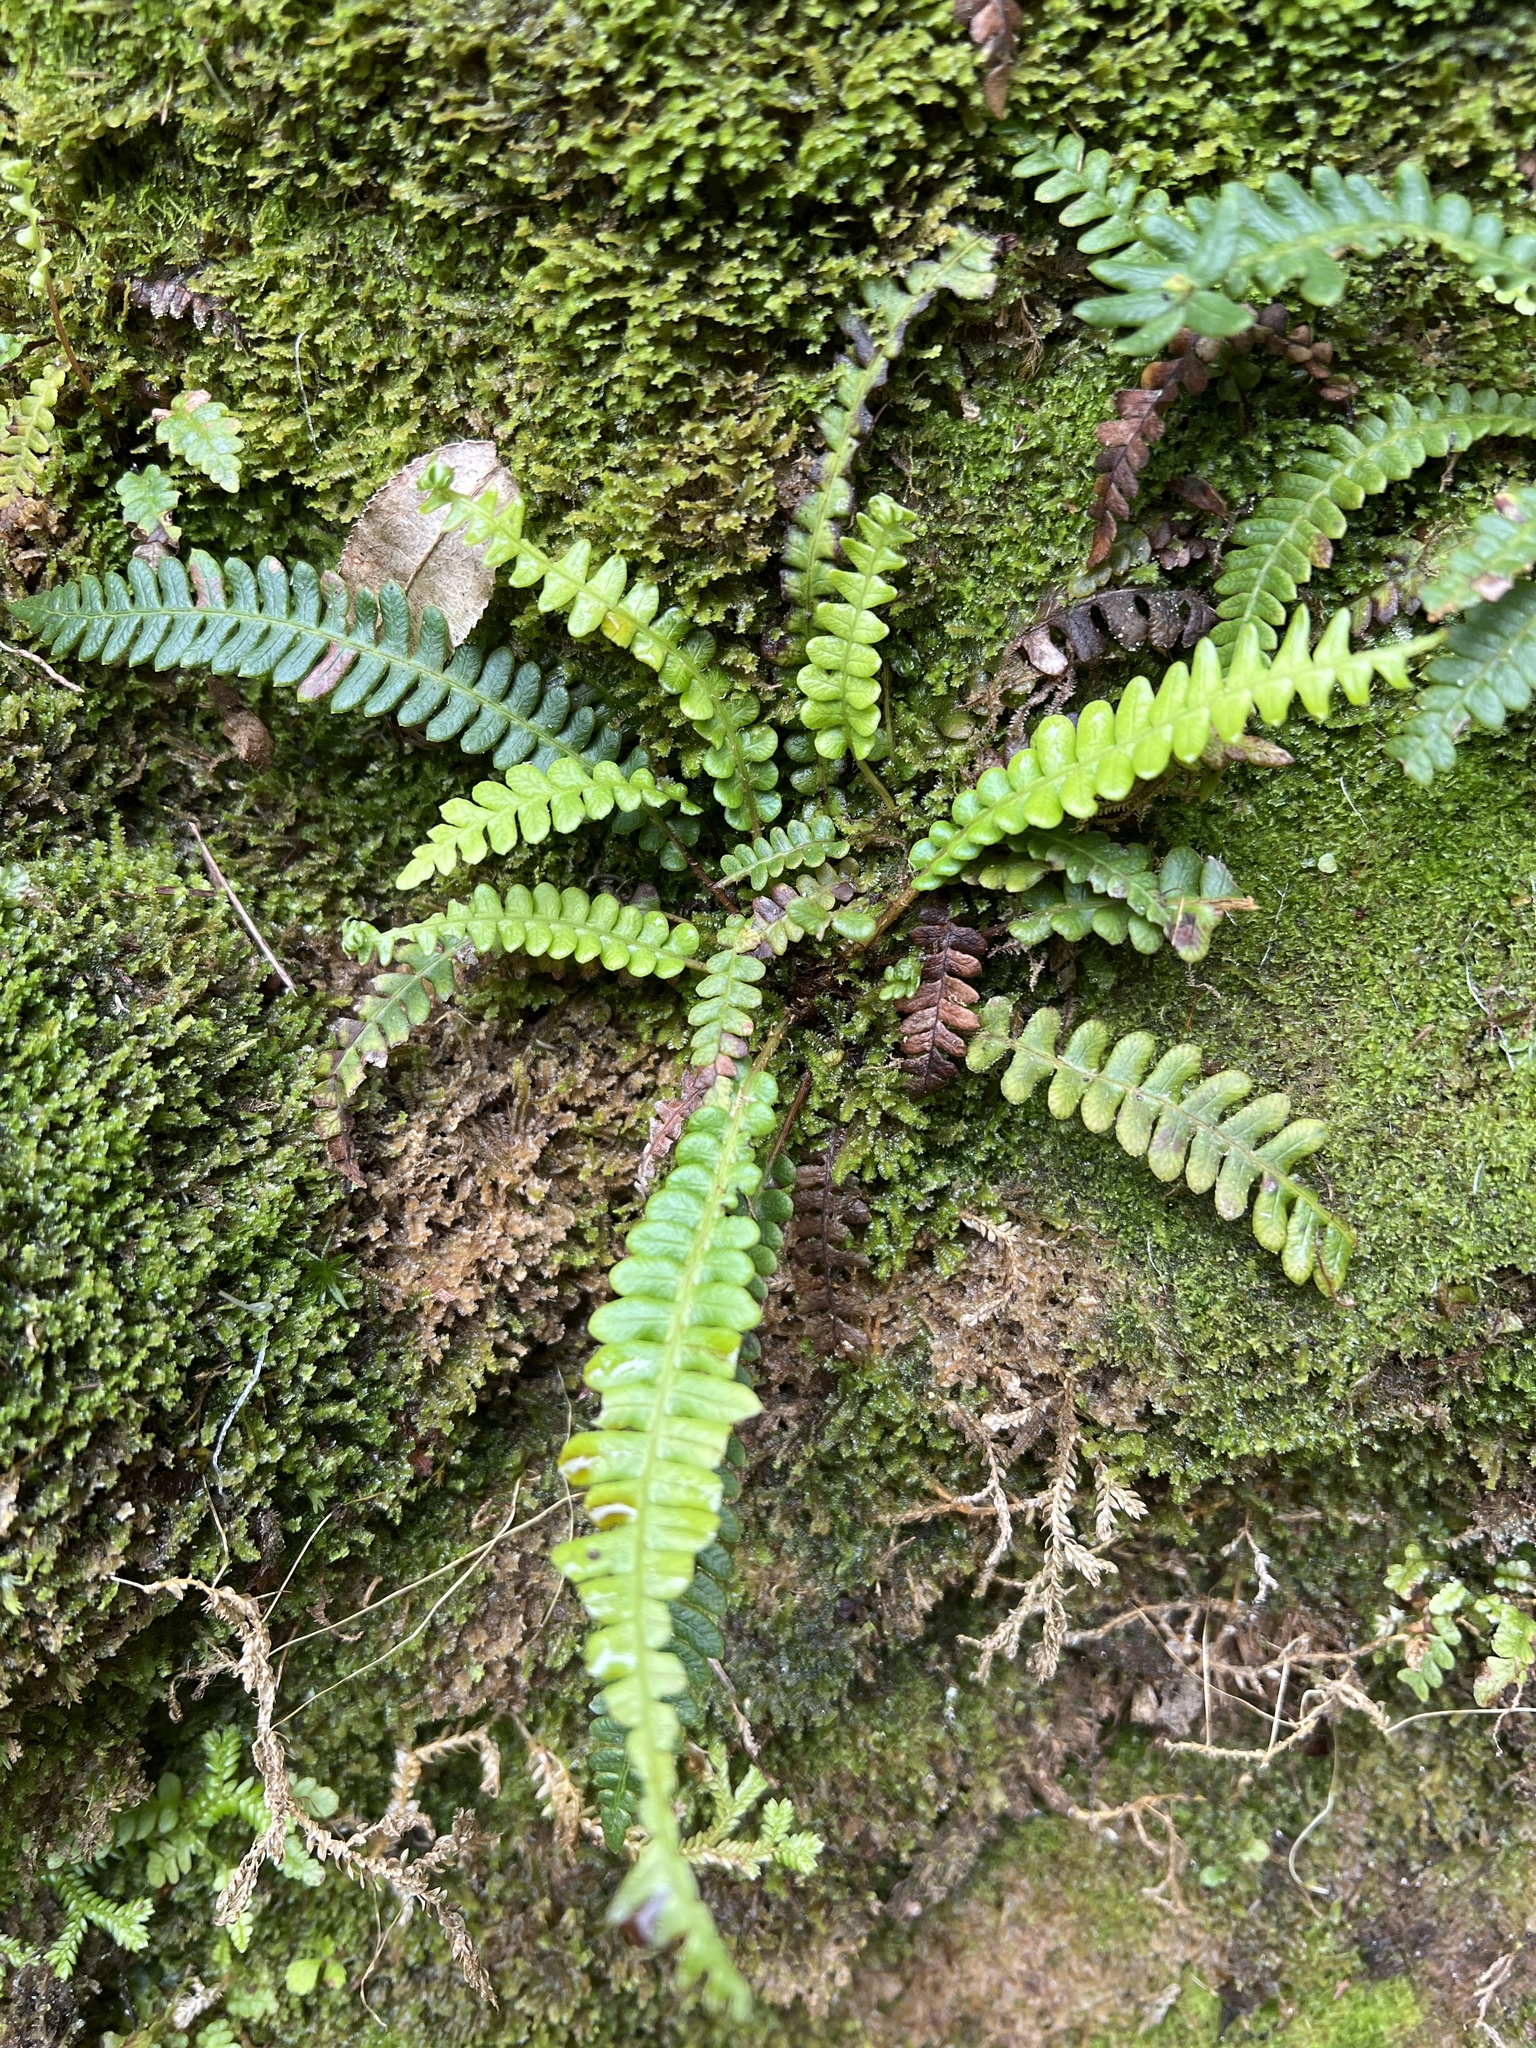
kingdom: Plantae
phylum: Tracheophyta
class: Polypodiopsida
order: Polypodiales
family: Blechnaceae
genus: Struthiopteris
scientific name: Struthiopteris spicant
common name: Deer fern
